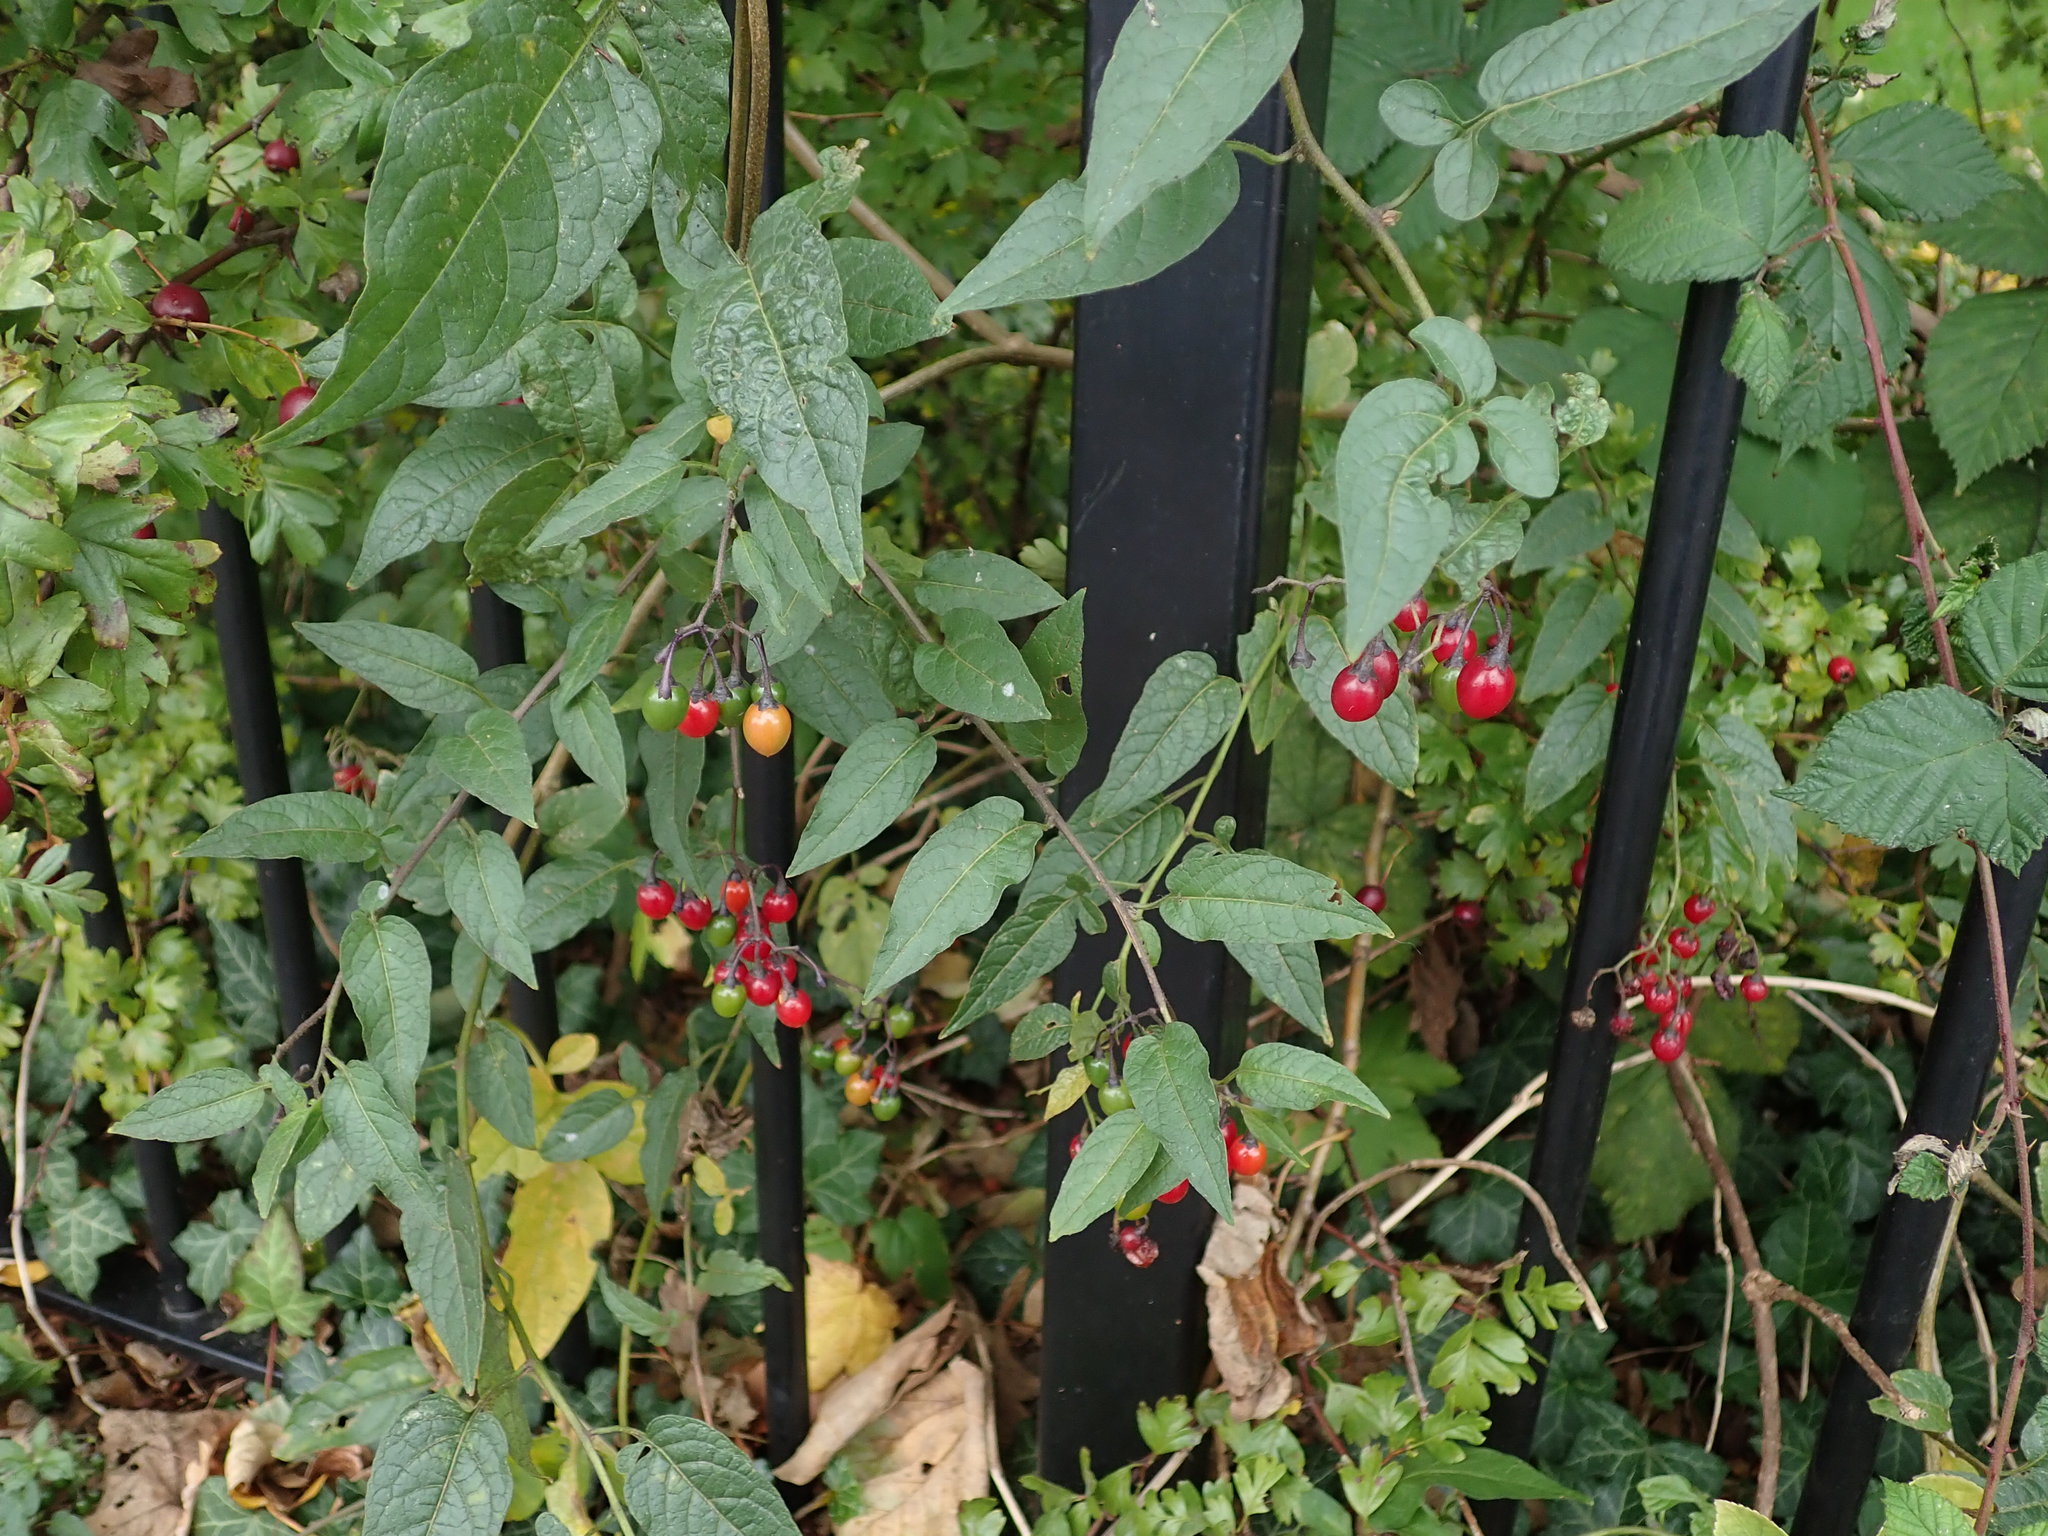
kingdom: Plantae
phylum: Tracheophyta
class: Magnoliopsida
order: Solanales
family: Solanaceae
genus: Solanum
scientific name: Solanum dulcamara
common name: Climbing nightshade
